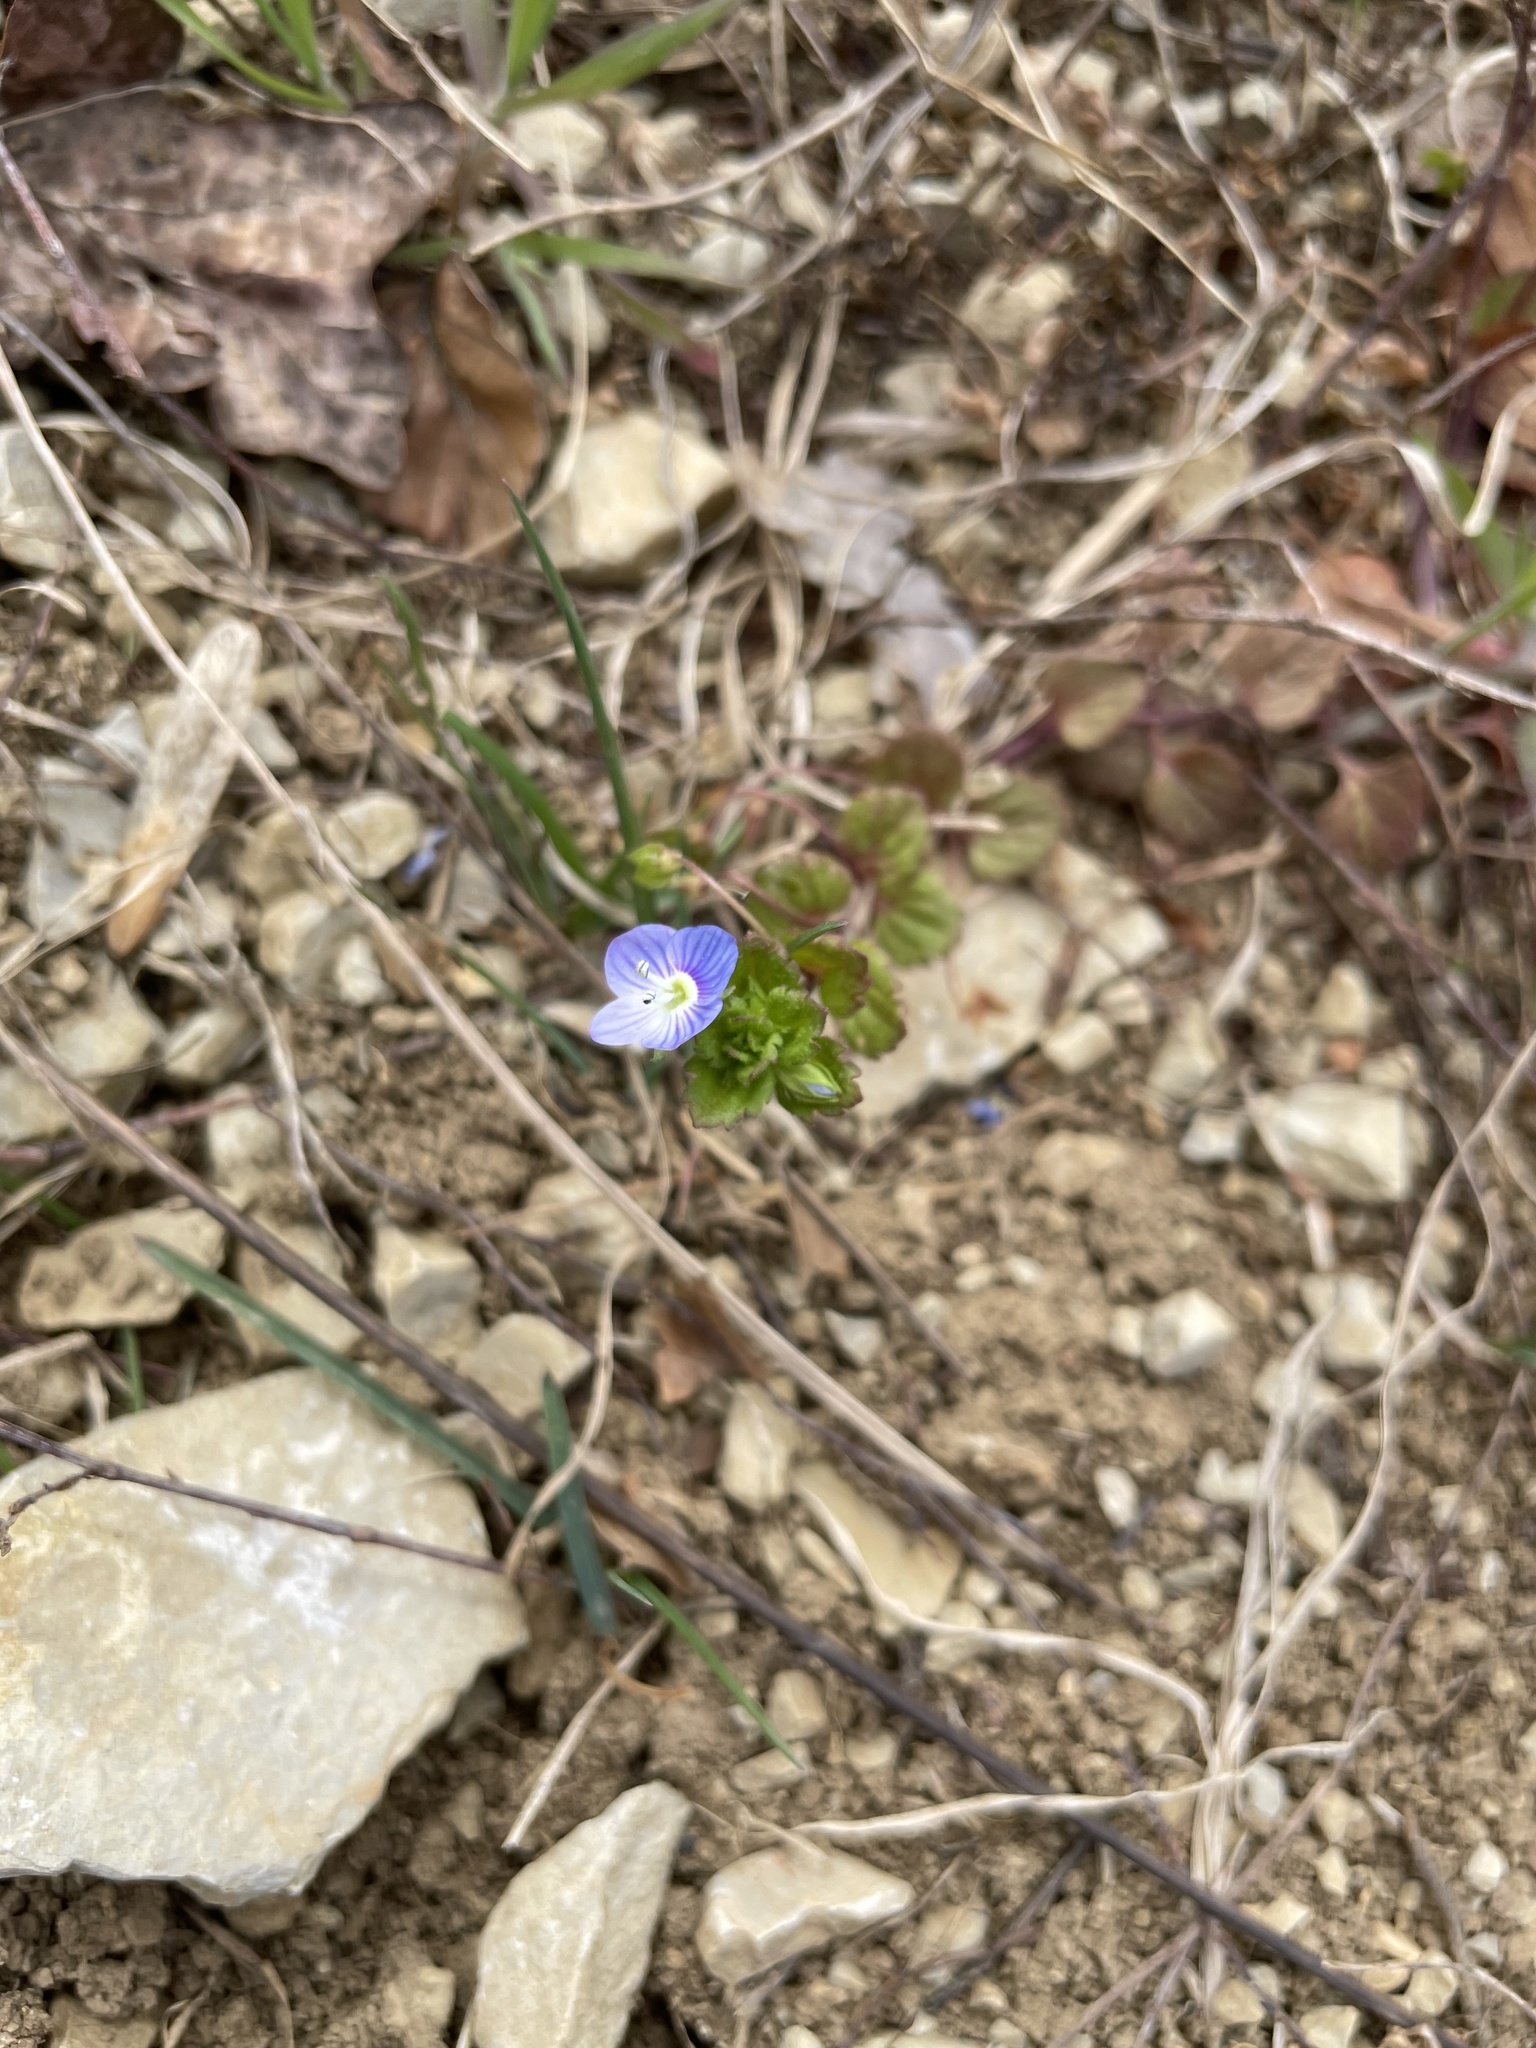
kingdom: Plantae
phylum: Tracheophyta
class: Magnoliopsida
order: Lamiales
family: Plantaginaceae
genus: Veronica
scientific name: Veronica persica
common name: Common field-speedwell
